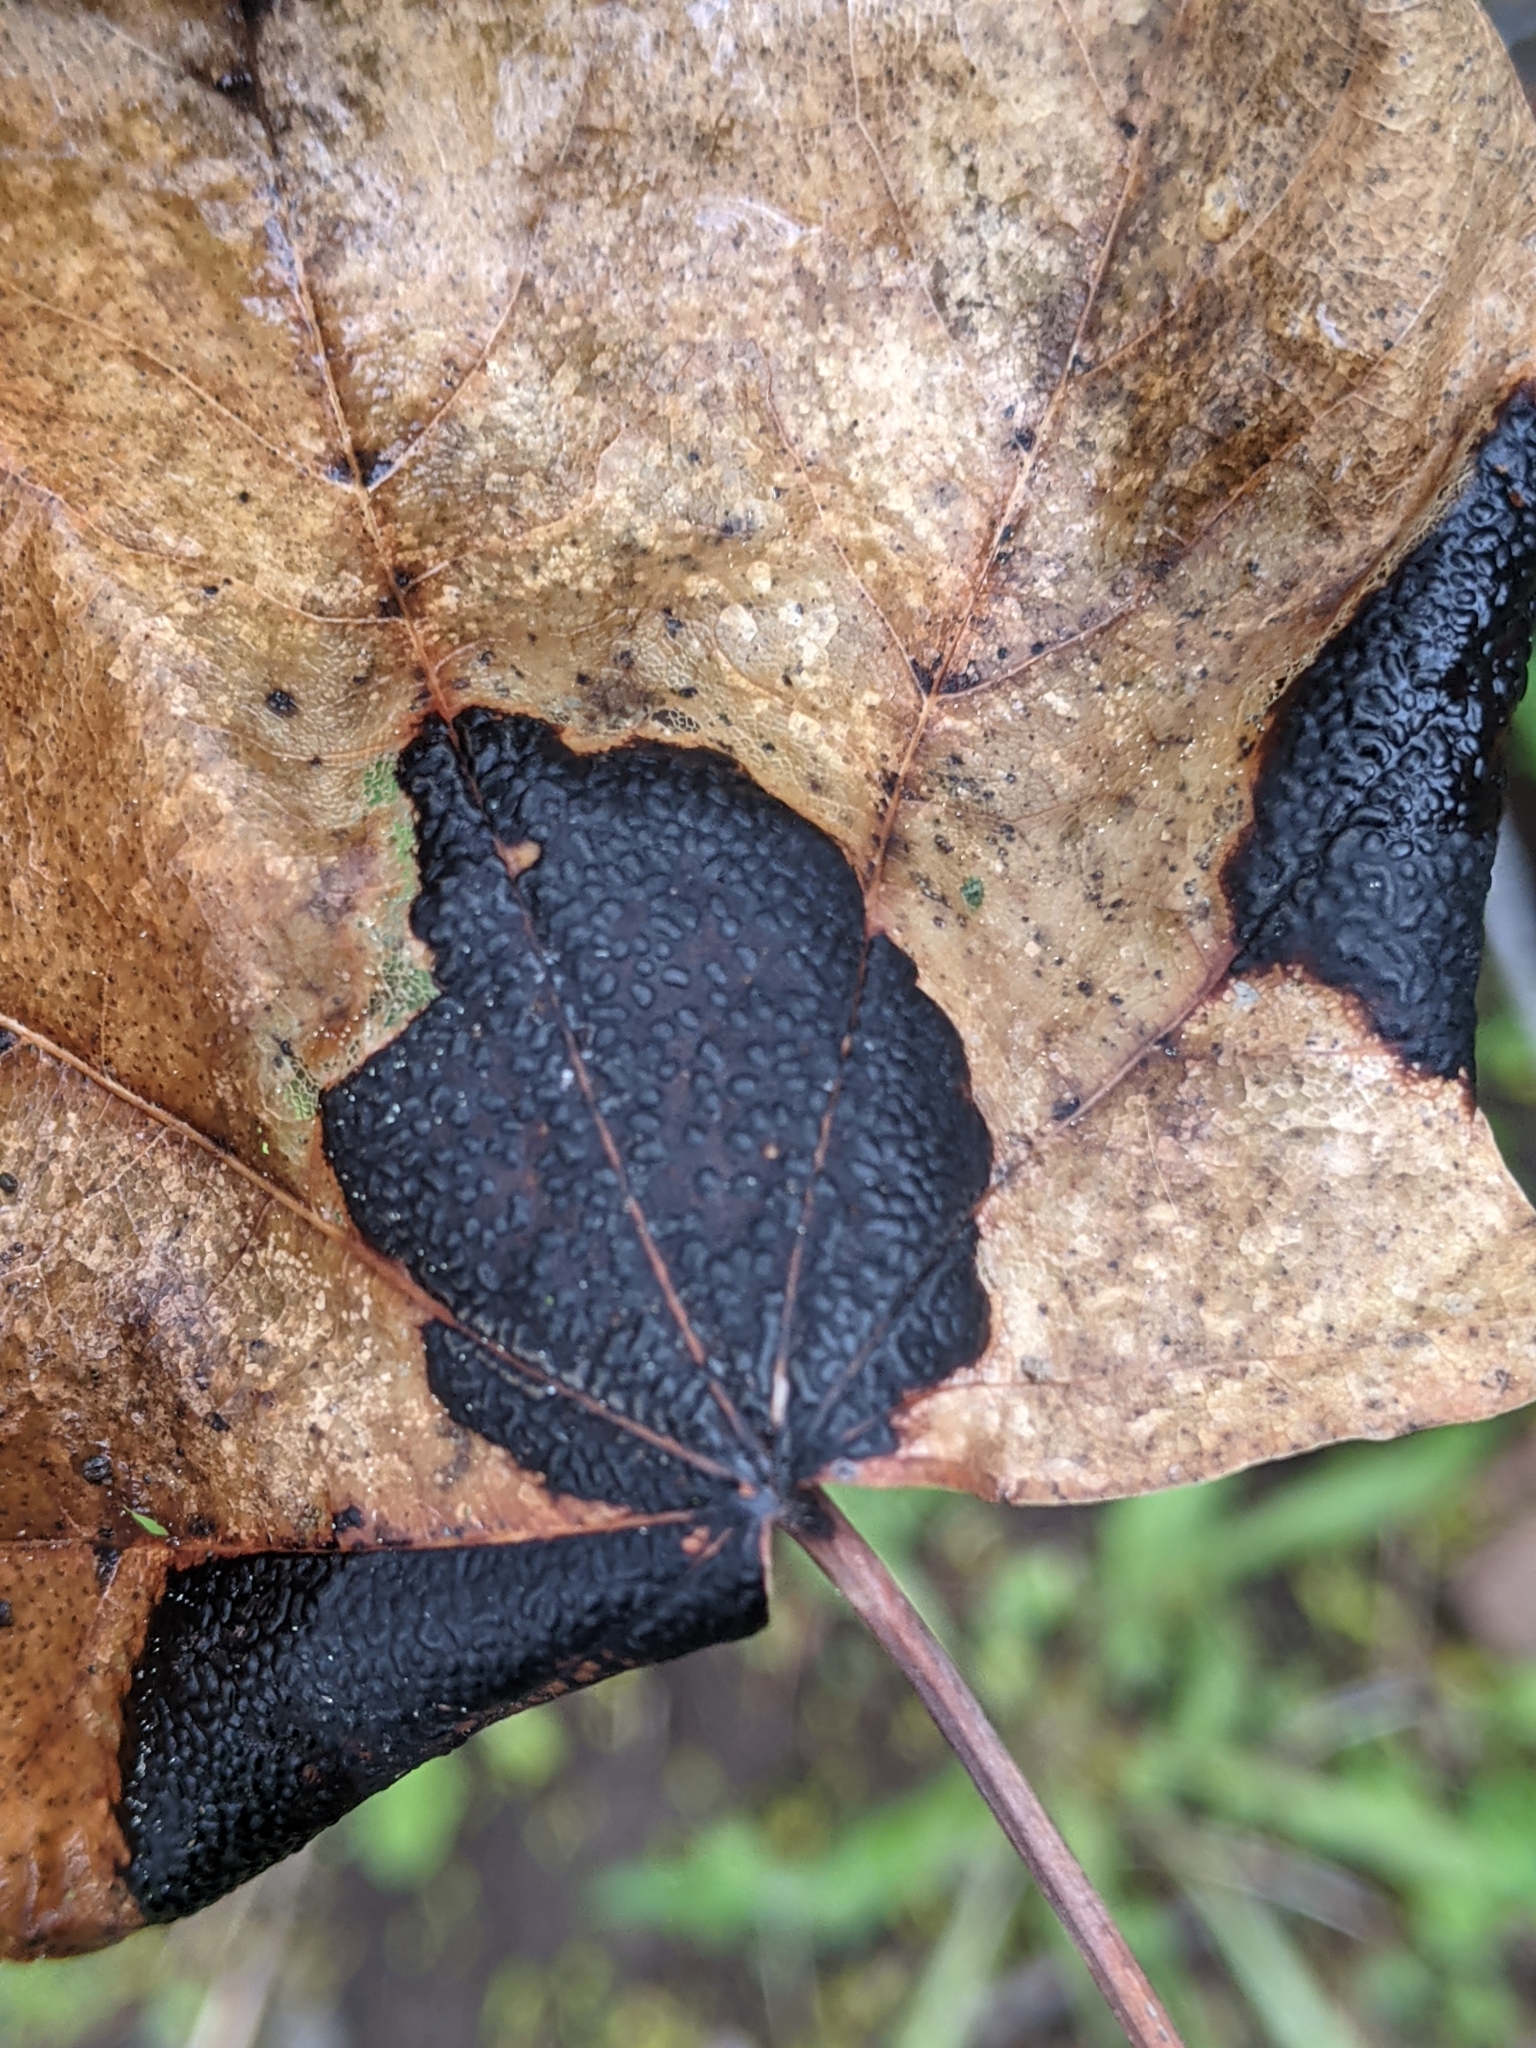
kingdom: Fungi
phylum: Ascomycota
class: Leotiomycetes
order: Rhytismatales
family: Rhytismataceae
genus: Rhytisma
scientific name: Rhytisma acerinum
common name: European tar spot
